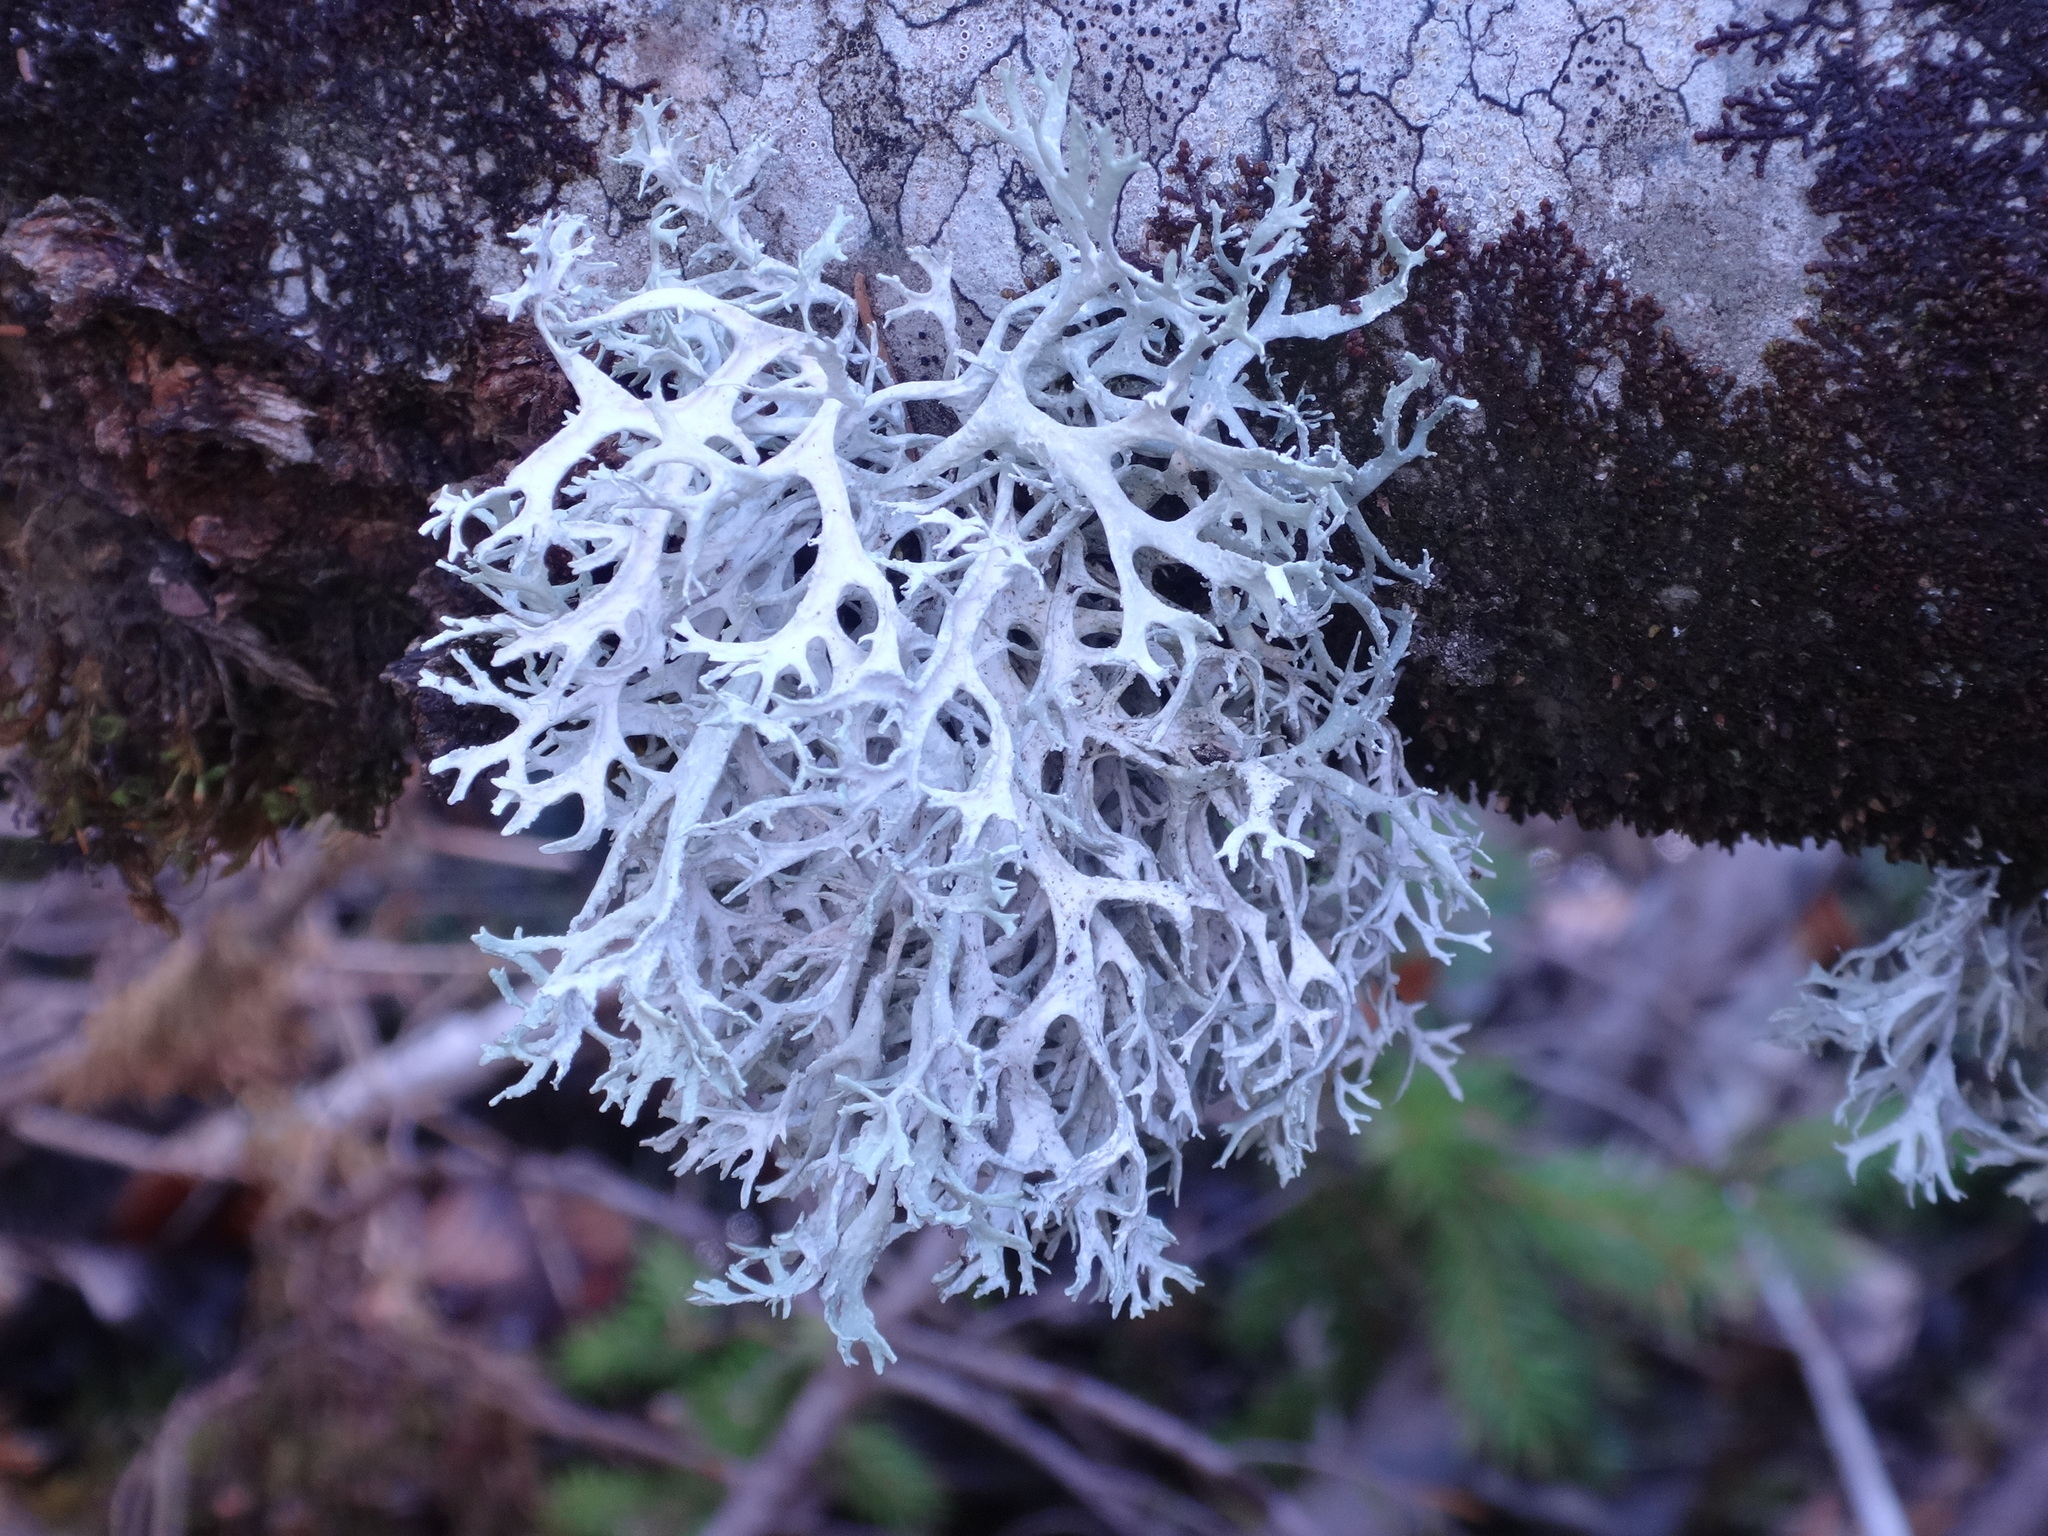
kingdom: Fungi
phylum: Ascomycota
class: Lecanoromycetes
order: Lecanorales
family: Parmeliaceae
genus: Evernia
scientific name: Evernia prunastri
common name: Oak moss
